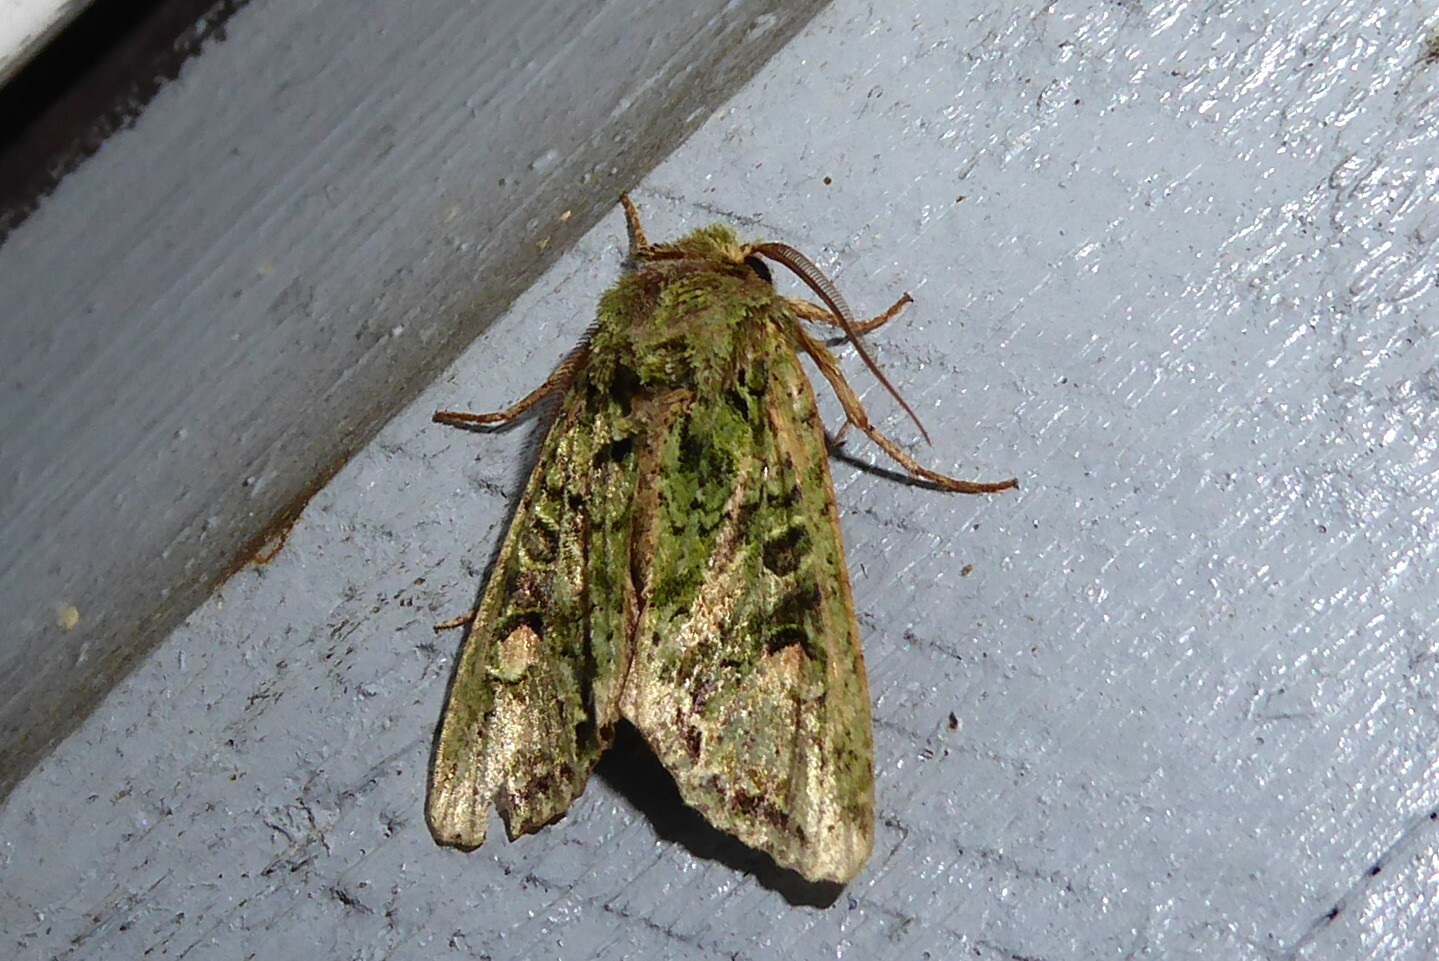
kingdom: Animalia
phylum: Arthropoda
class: Insecta
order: Lepidoptera
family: Noctuidae
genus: Ichneutica
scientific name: Ichneutica
